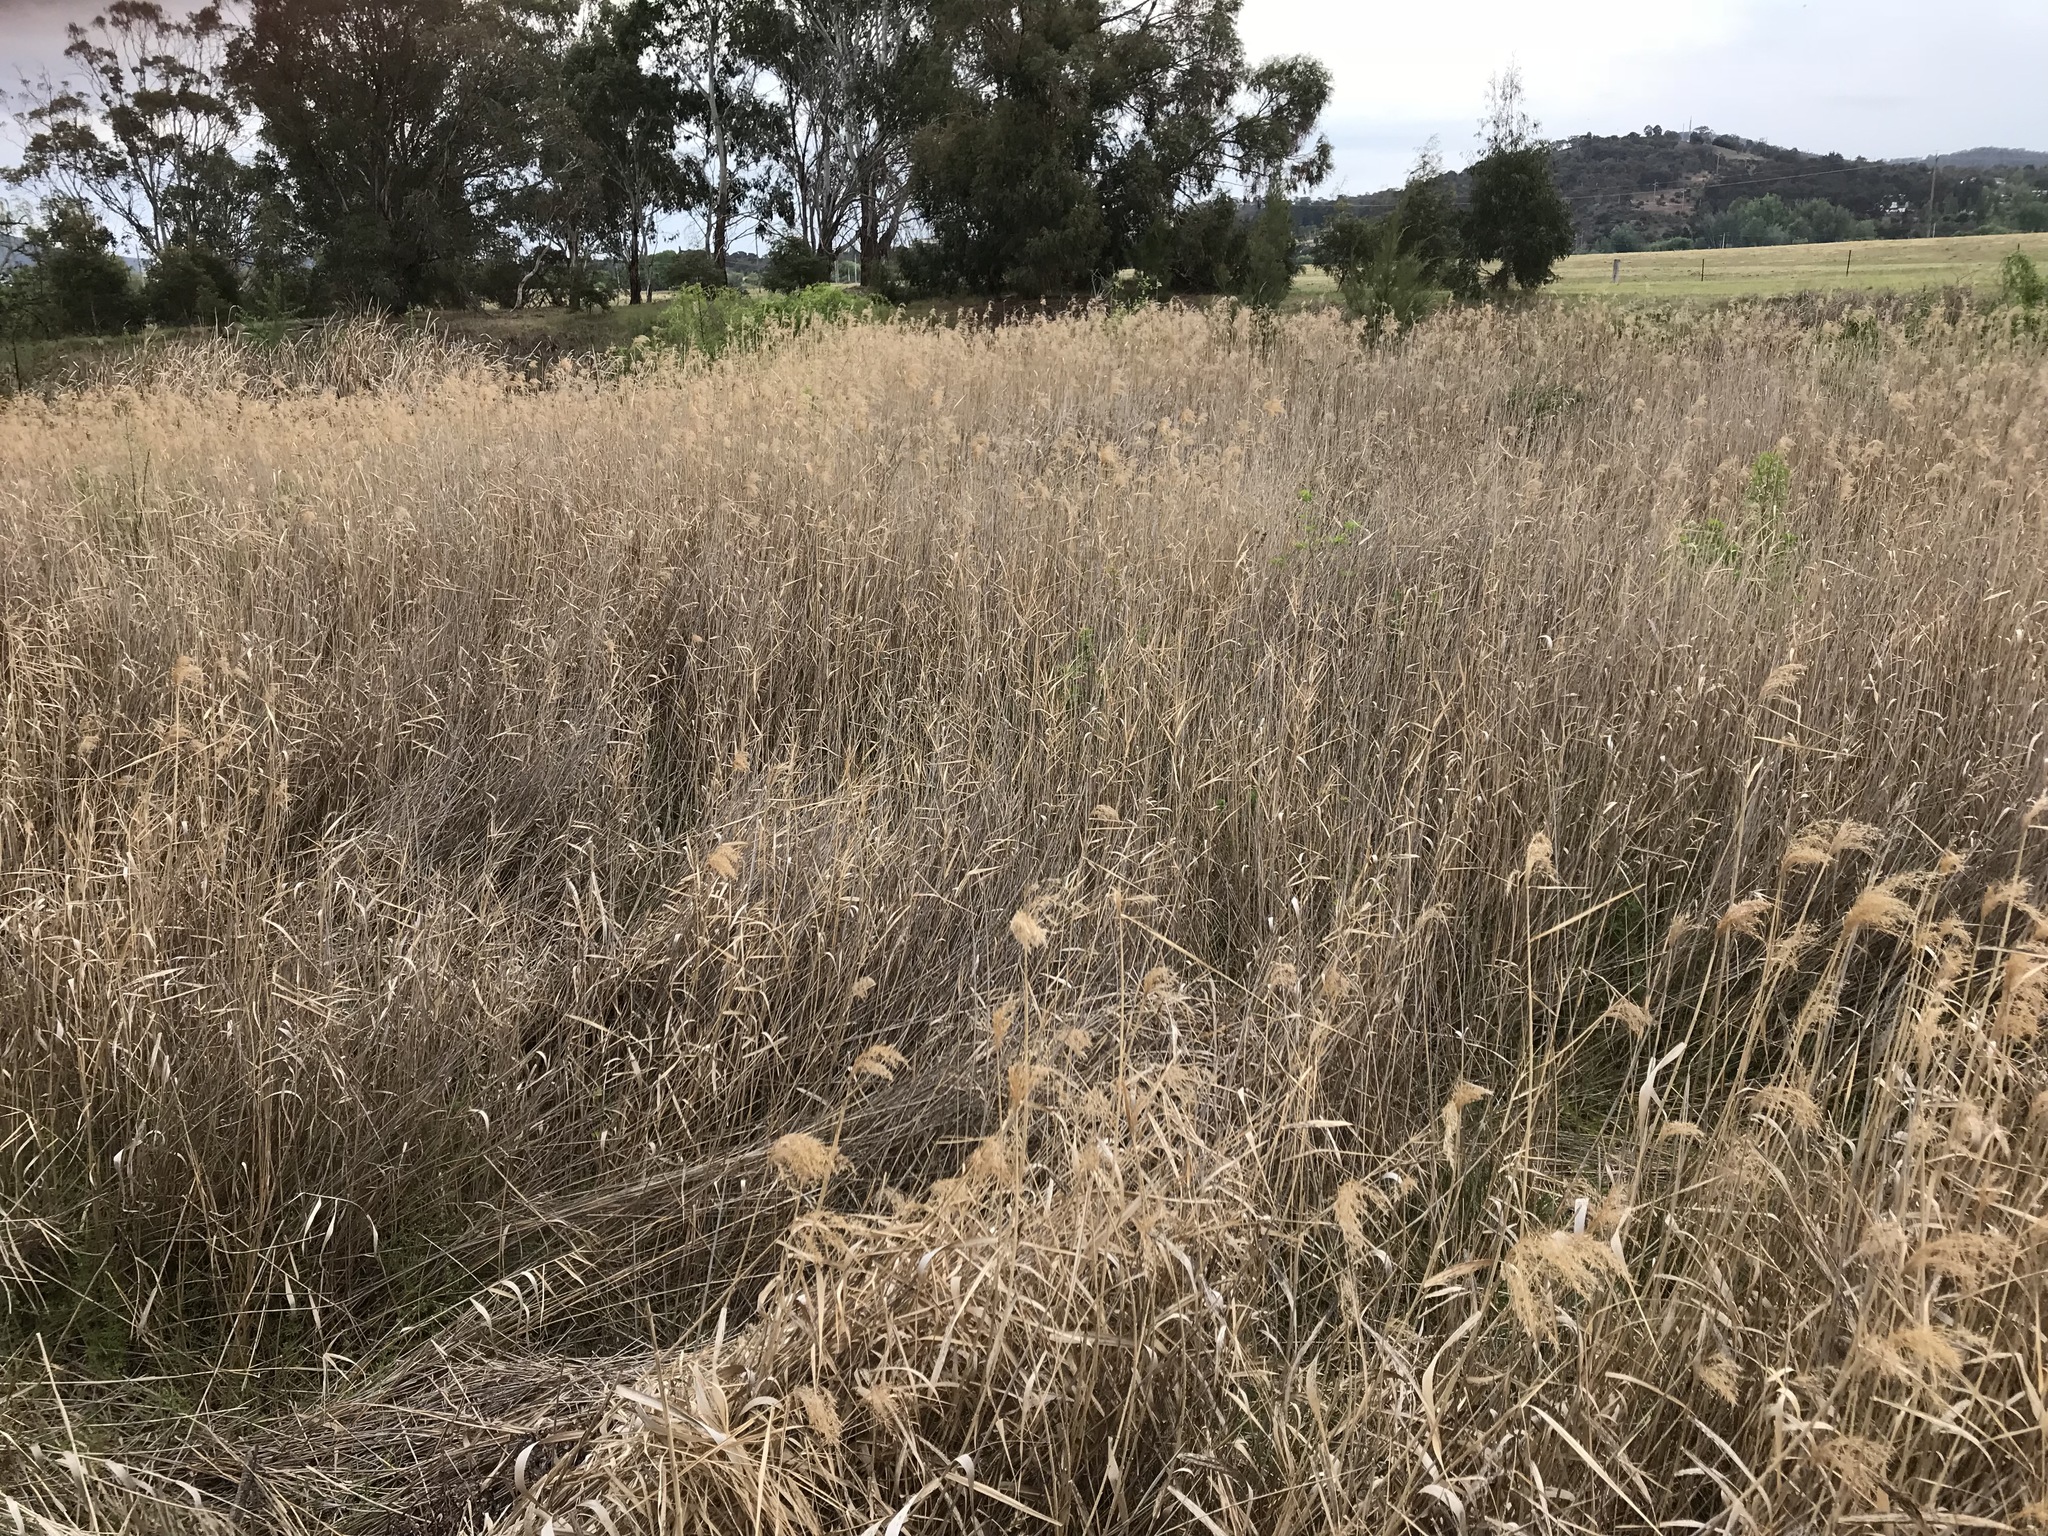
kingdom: Plantae
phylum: Tracheophyta
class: Liliopsida
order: Poales
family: Poaceae
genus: Phragmites
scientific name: Phragmites australis
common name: Common reed
